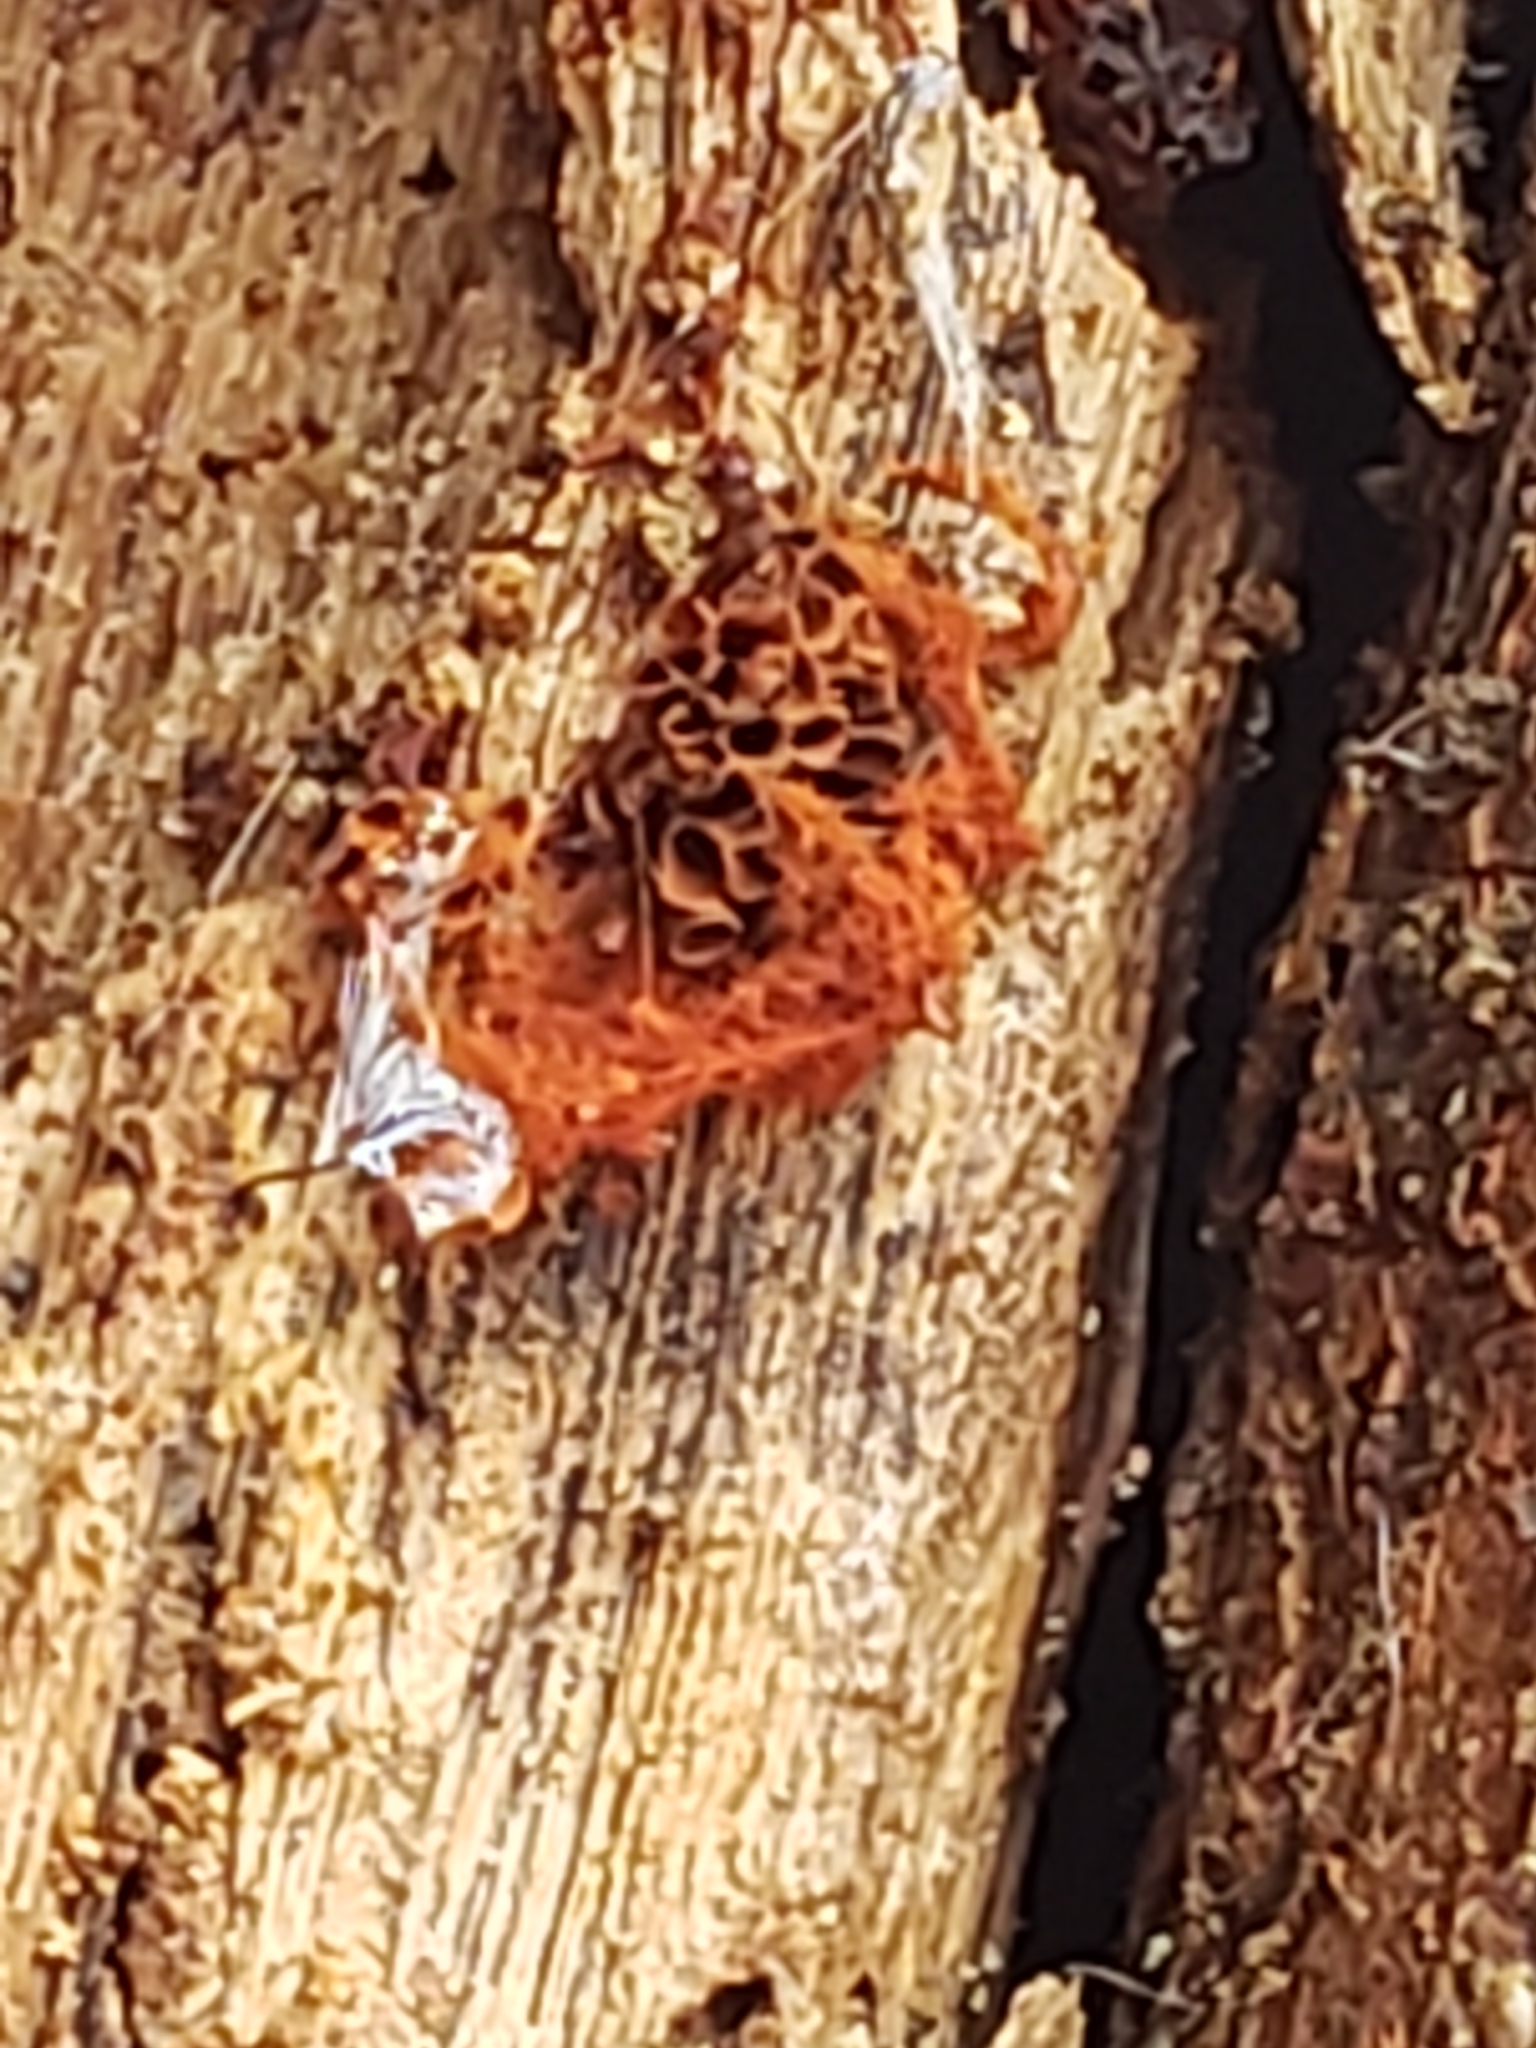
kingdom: Protozoa
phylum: Mycetozoa
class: Myxomycetes
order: Trichiales
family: Trichiaceae
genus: Metatrichia
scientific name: Metatrichia vesparia
